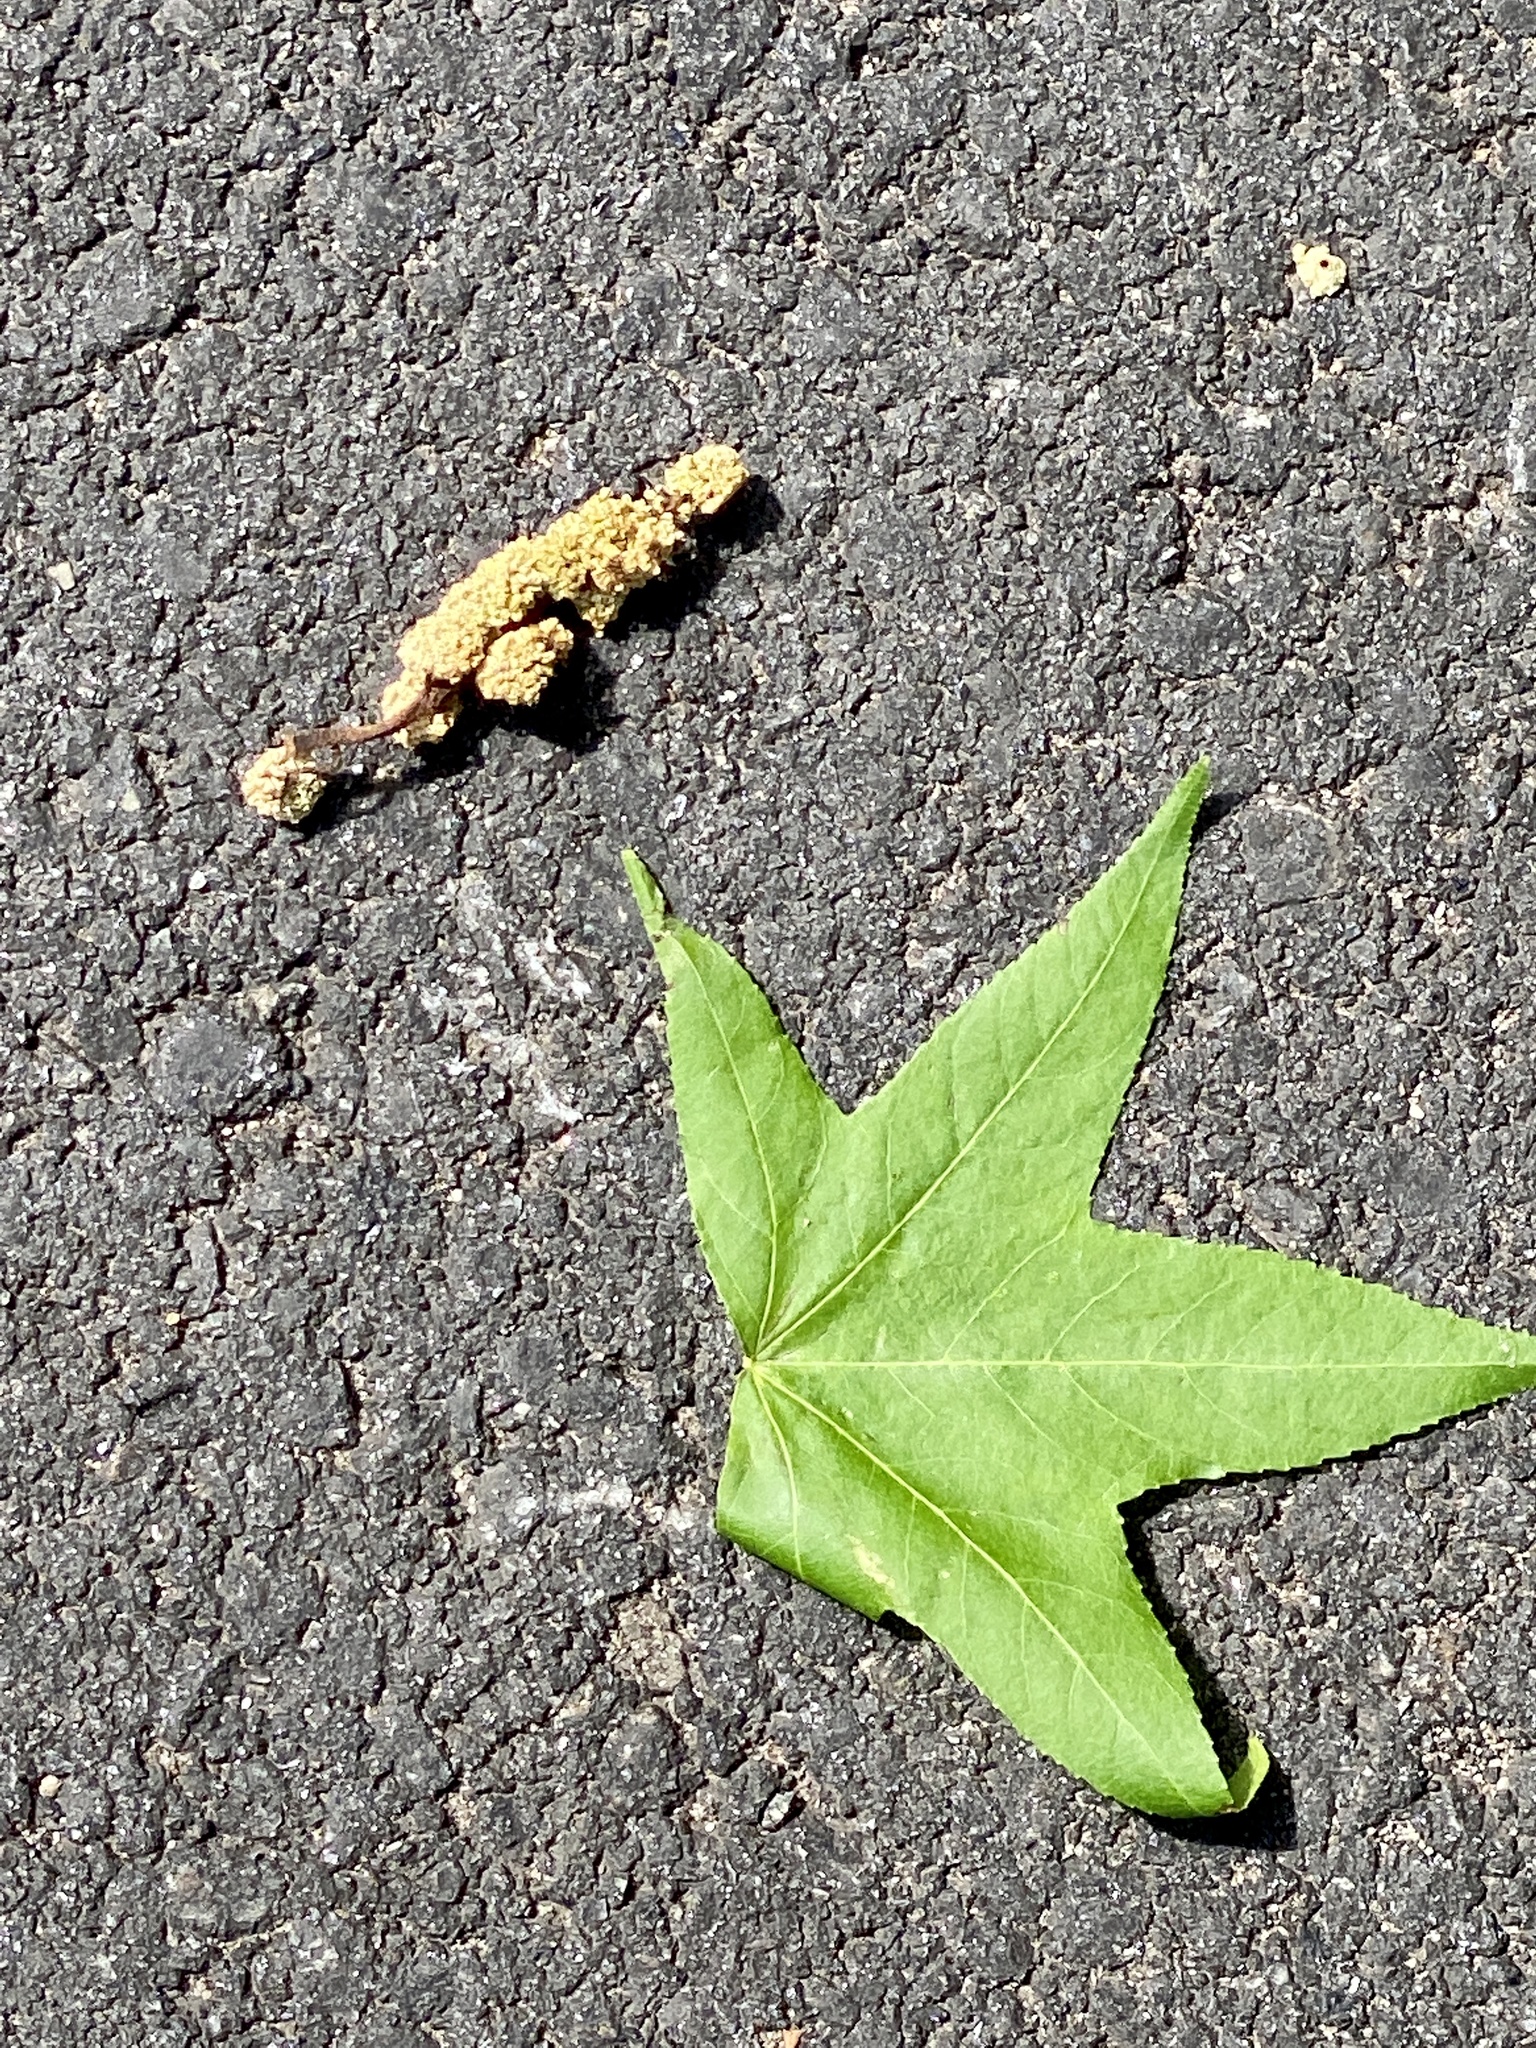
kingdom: Plantae
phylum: Tracheophyta
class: Magnoliopsida
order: Saxifragales
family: Altingiaceae
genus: Liquidambar
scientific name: Liquidambar styraciflua
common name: Sweet gum
